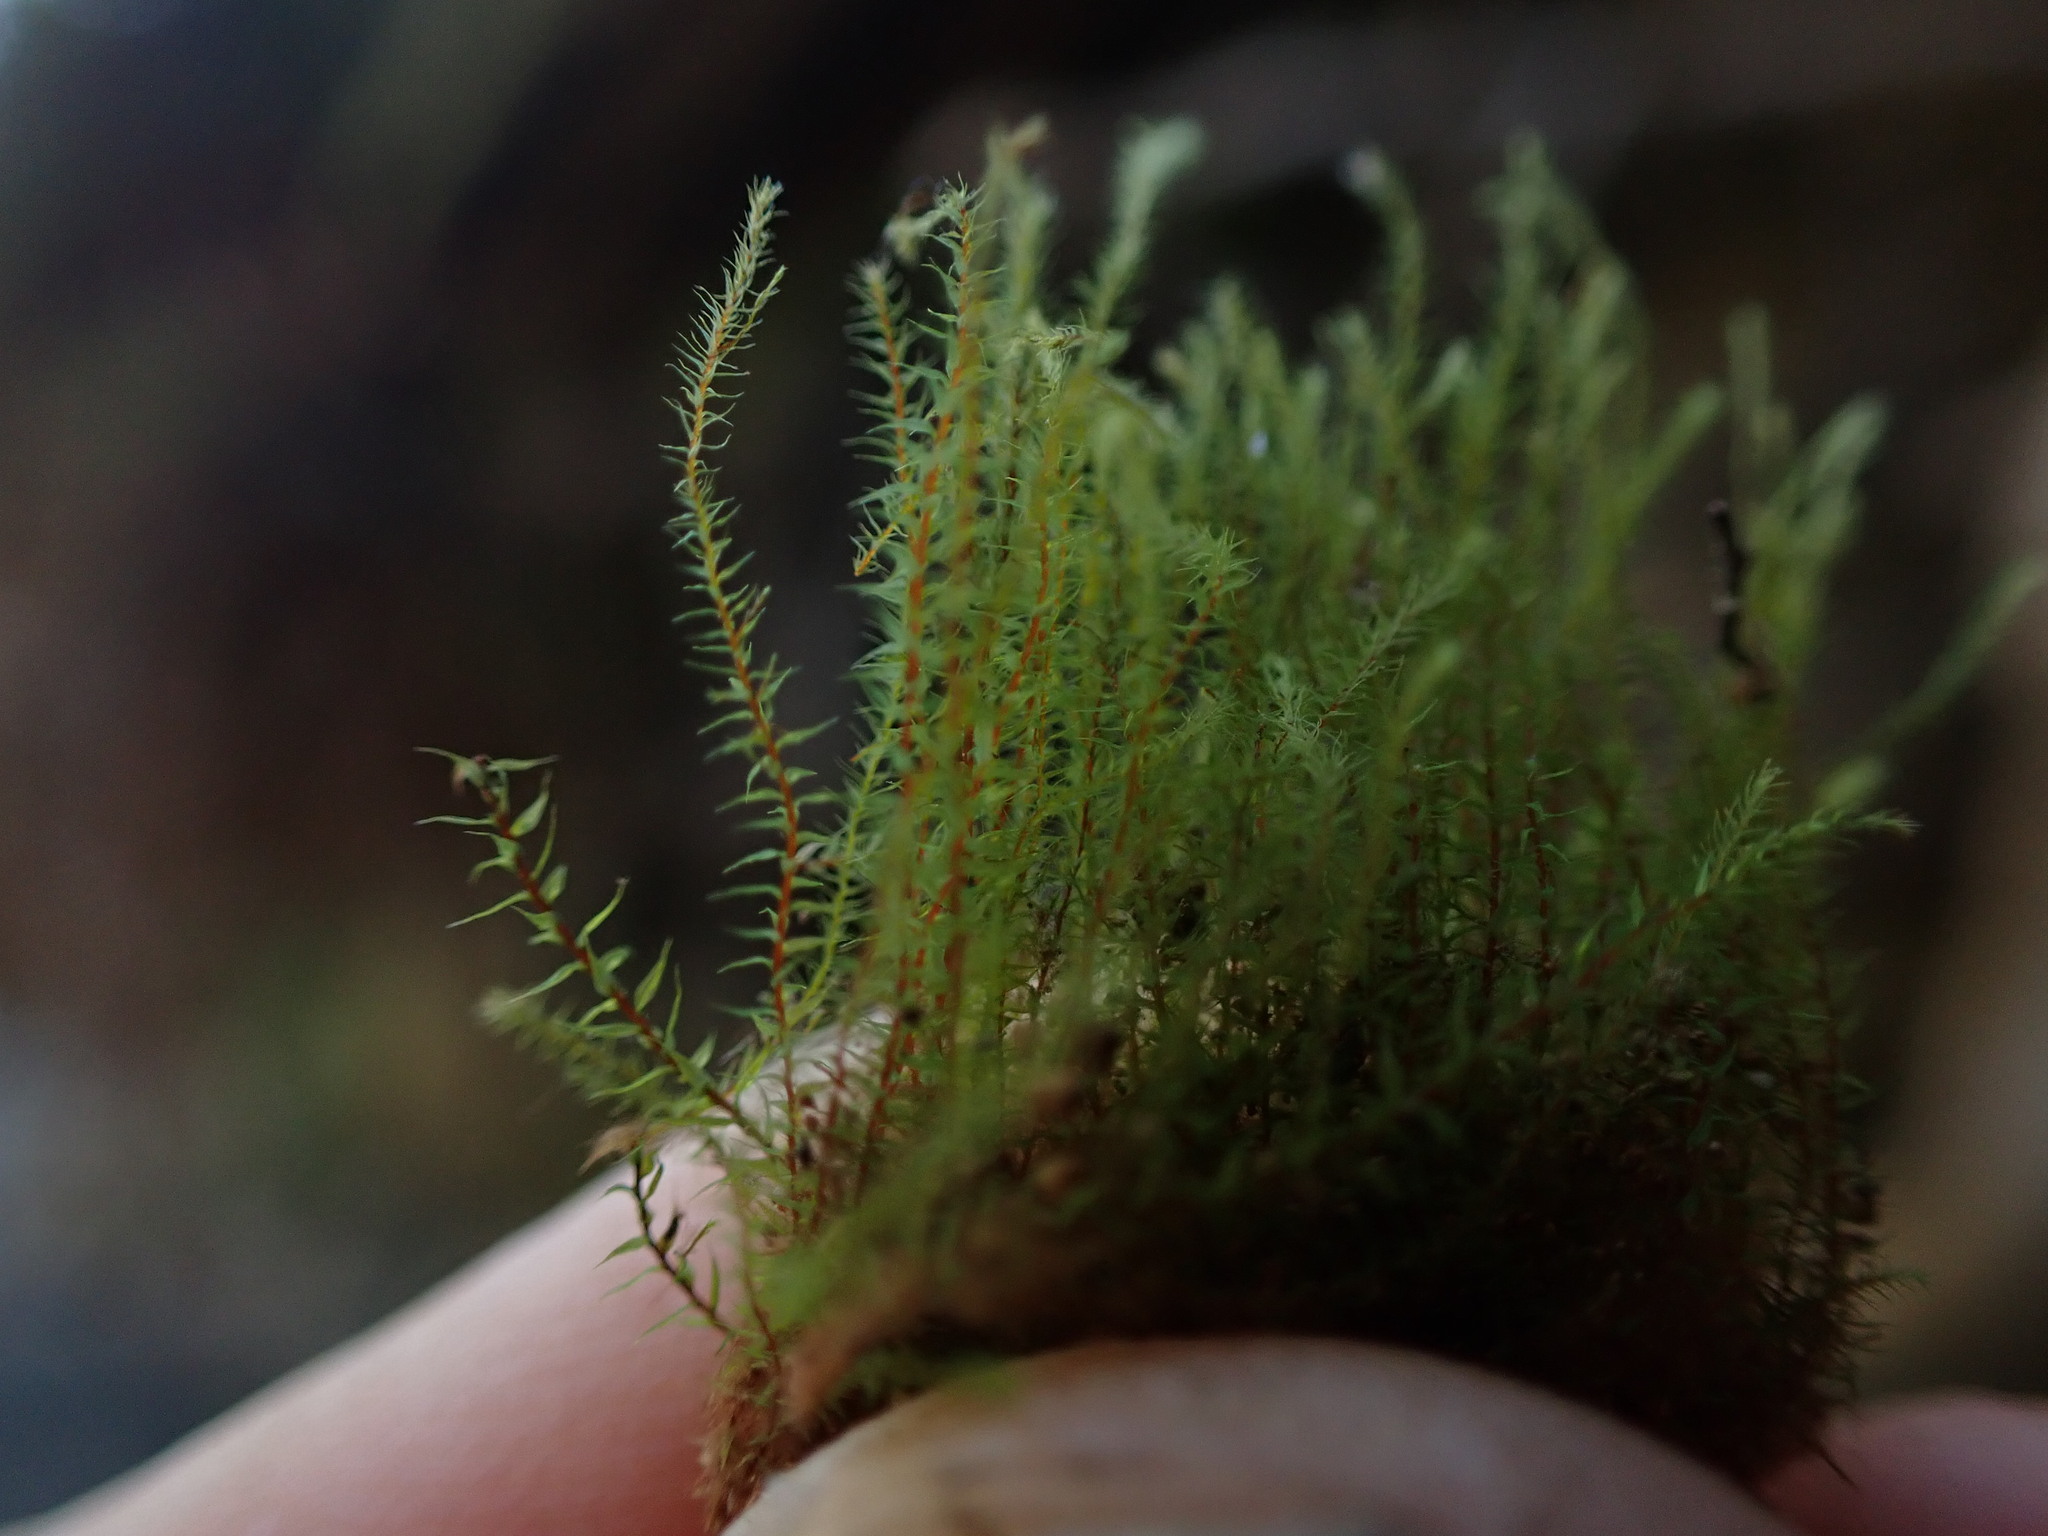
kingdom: Plantae
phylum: Bryophyta
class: Bryopsida
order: Bryales
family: Mniaceae
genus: Pohlia
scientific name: Pohlia wahlenbergii
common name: Wahlenberg's nodding moss
